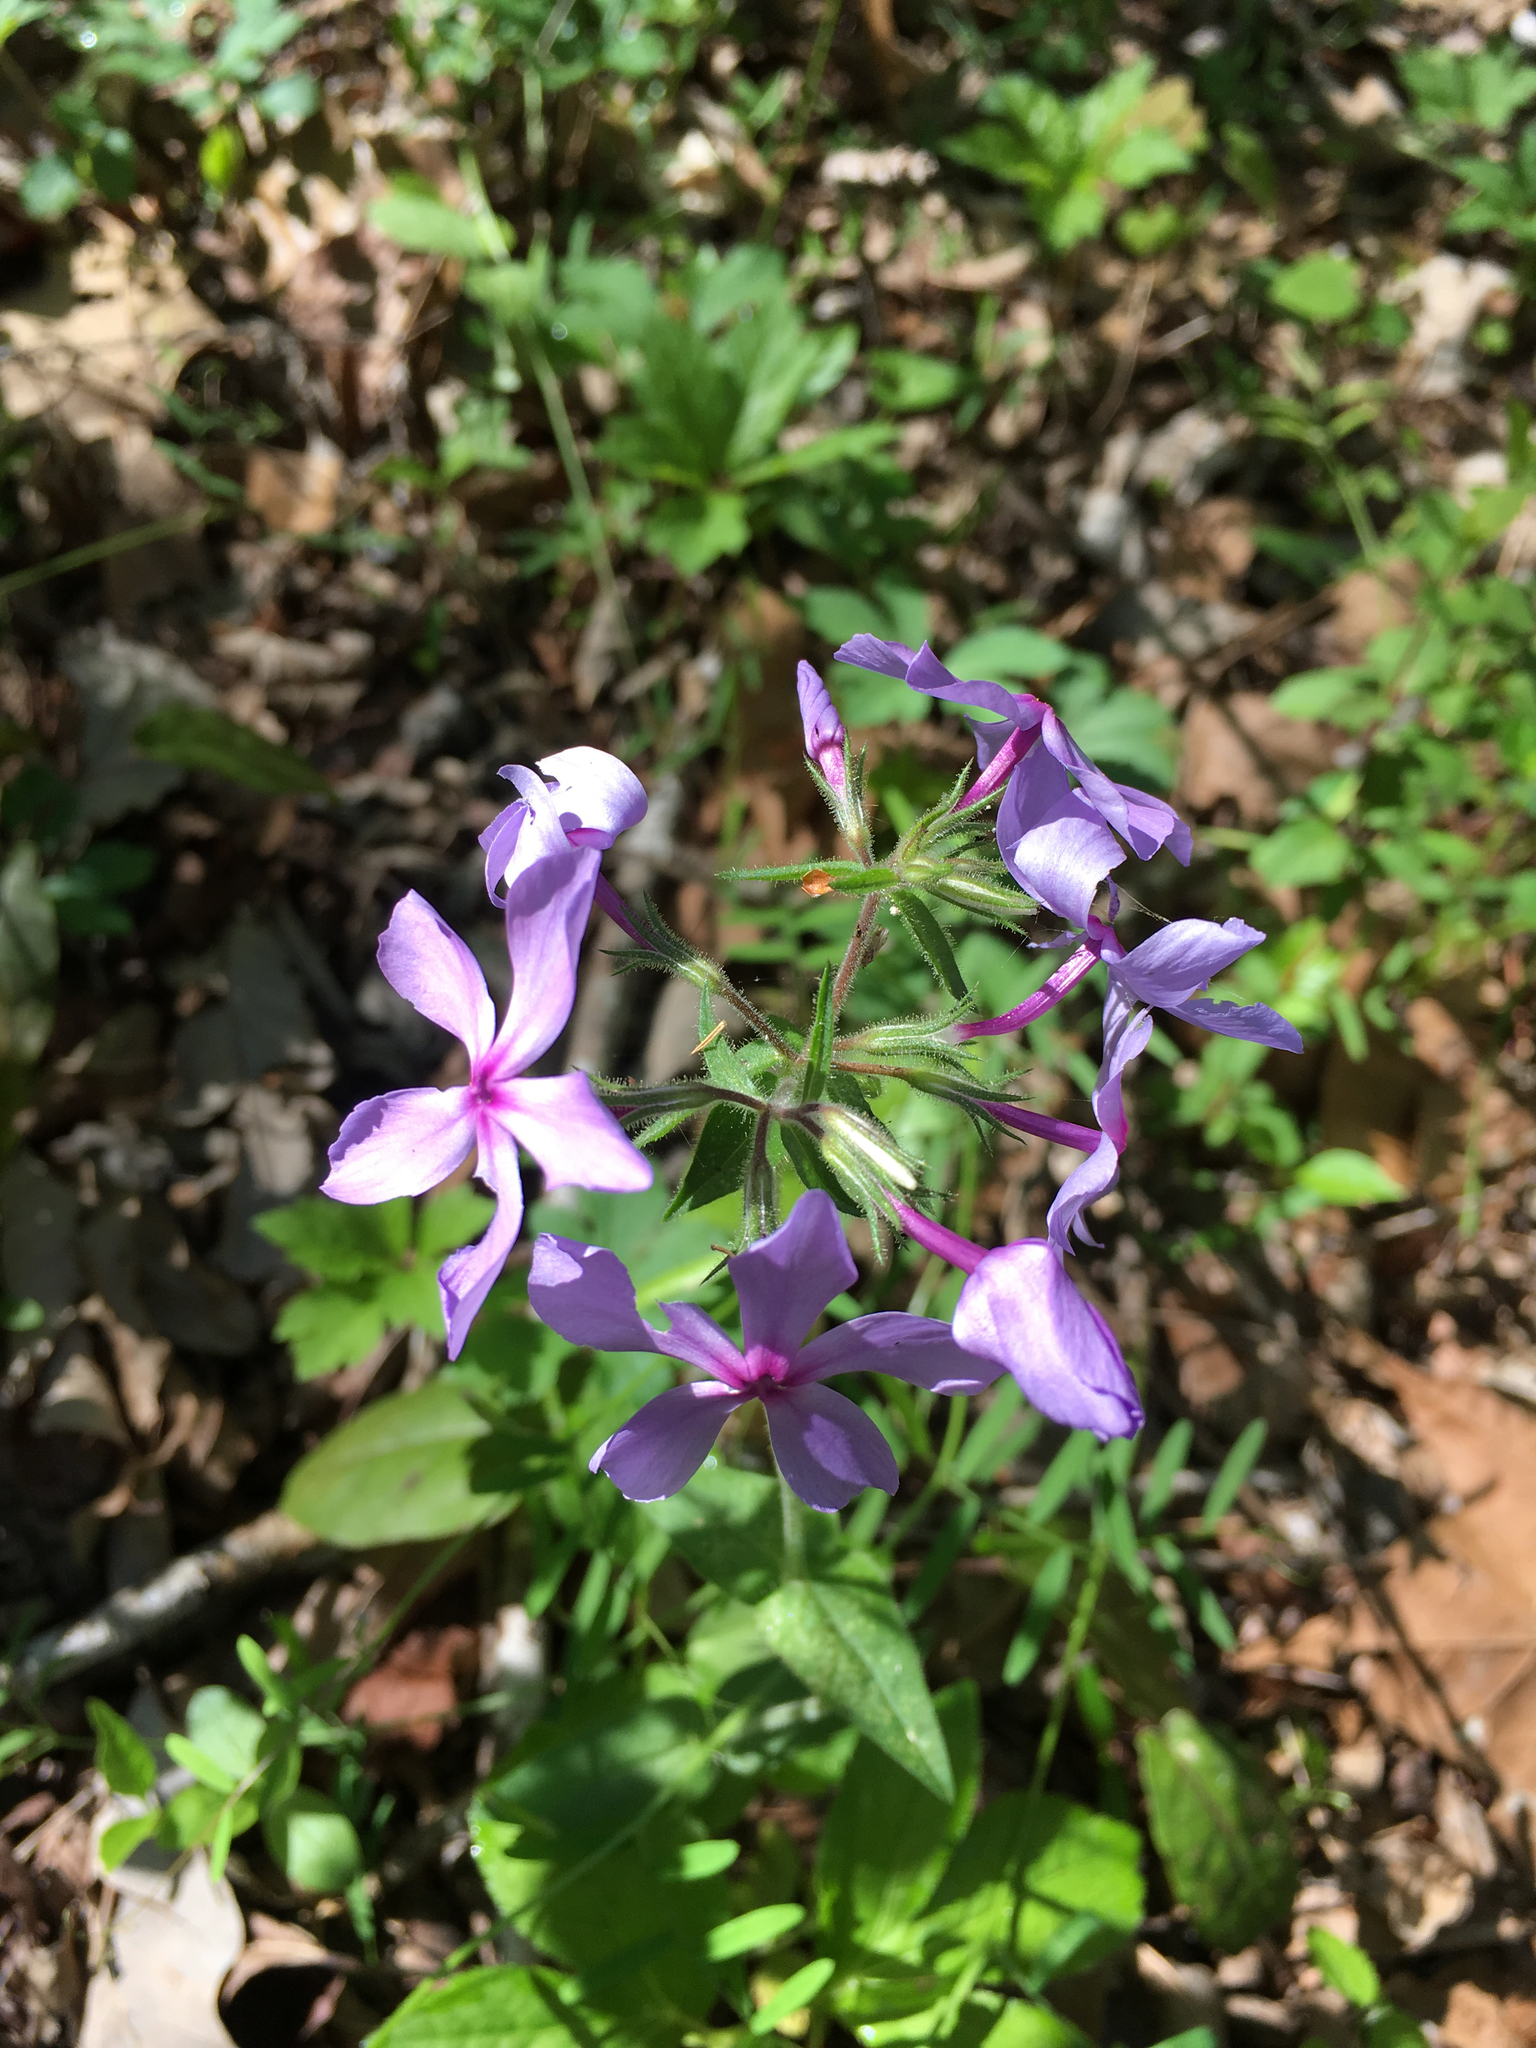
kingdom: Plantae
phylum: Tracheophyta
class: Magnoliopsida
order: Ericales
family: Polemoniaceae
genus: Phlox
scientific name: Phlox divaricata
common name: Blue phlox
